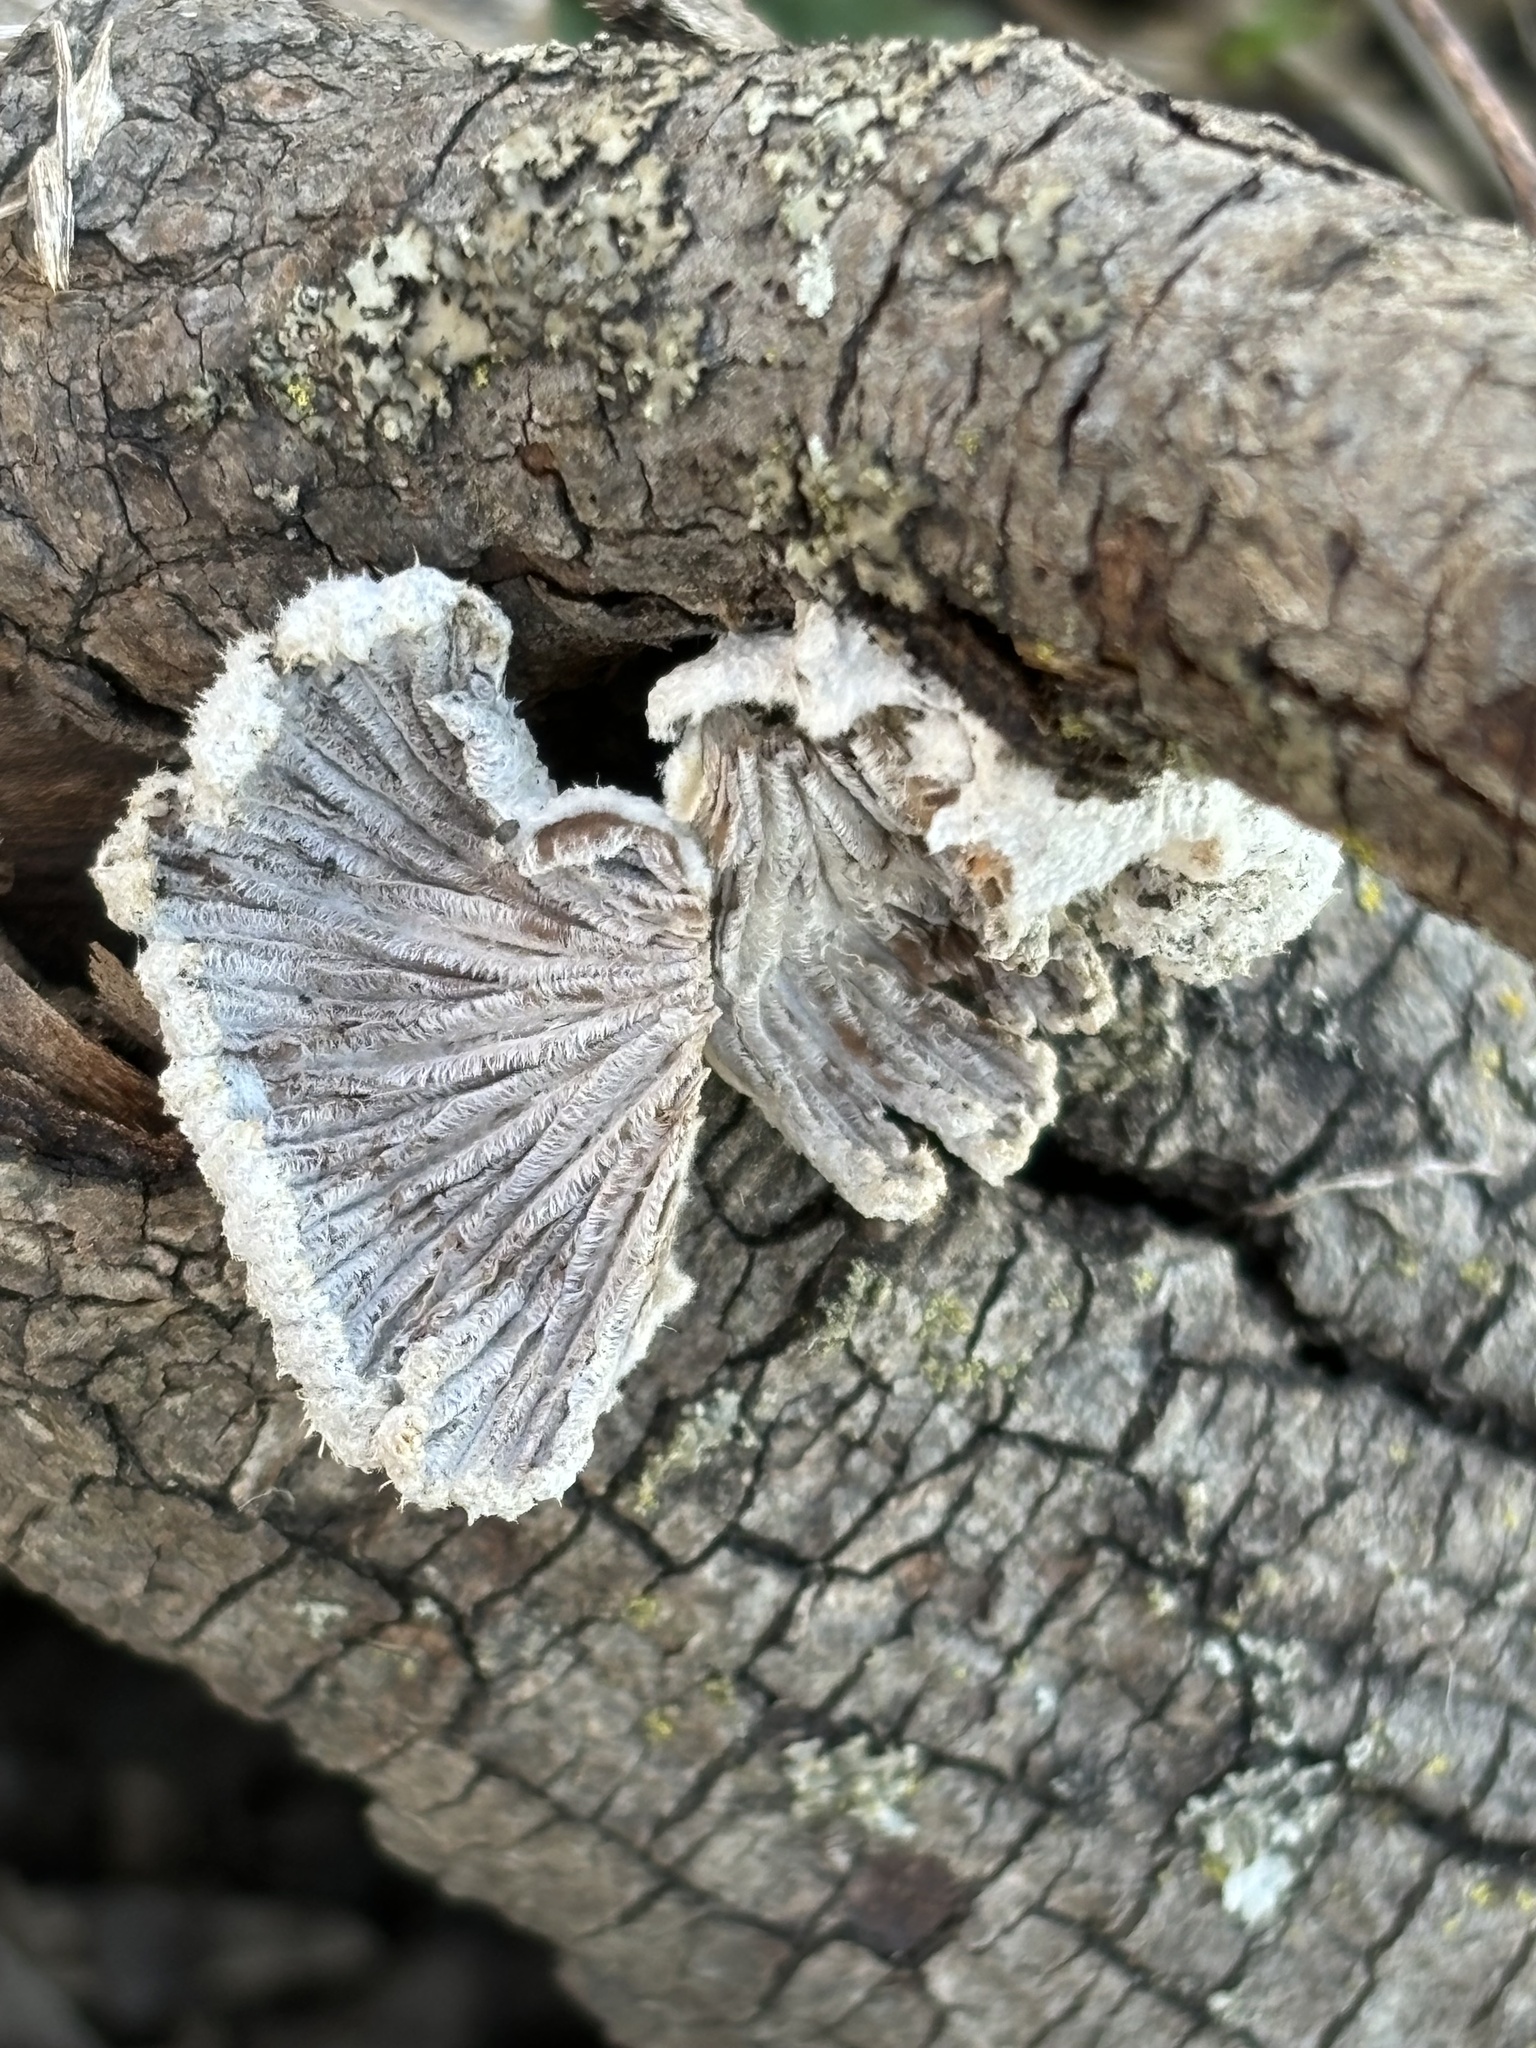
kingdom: Fungi
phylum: Basidiomycota
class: Agaricomycetes
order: Agaricales
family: Schizophyllaceae
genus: Schizophyllum
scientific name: Schizophyllum commune
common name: Common porecrust
